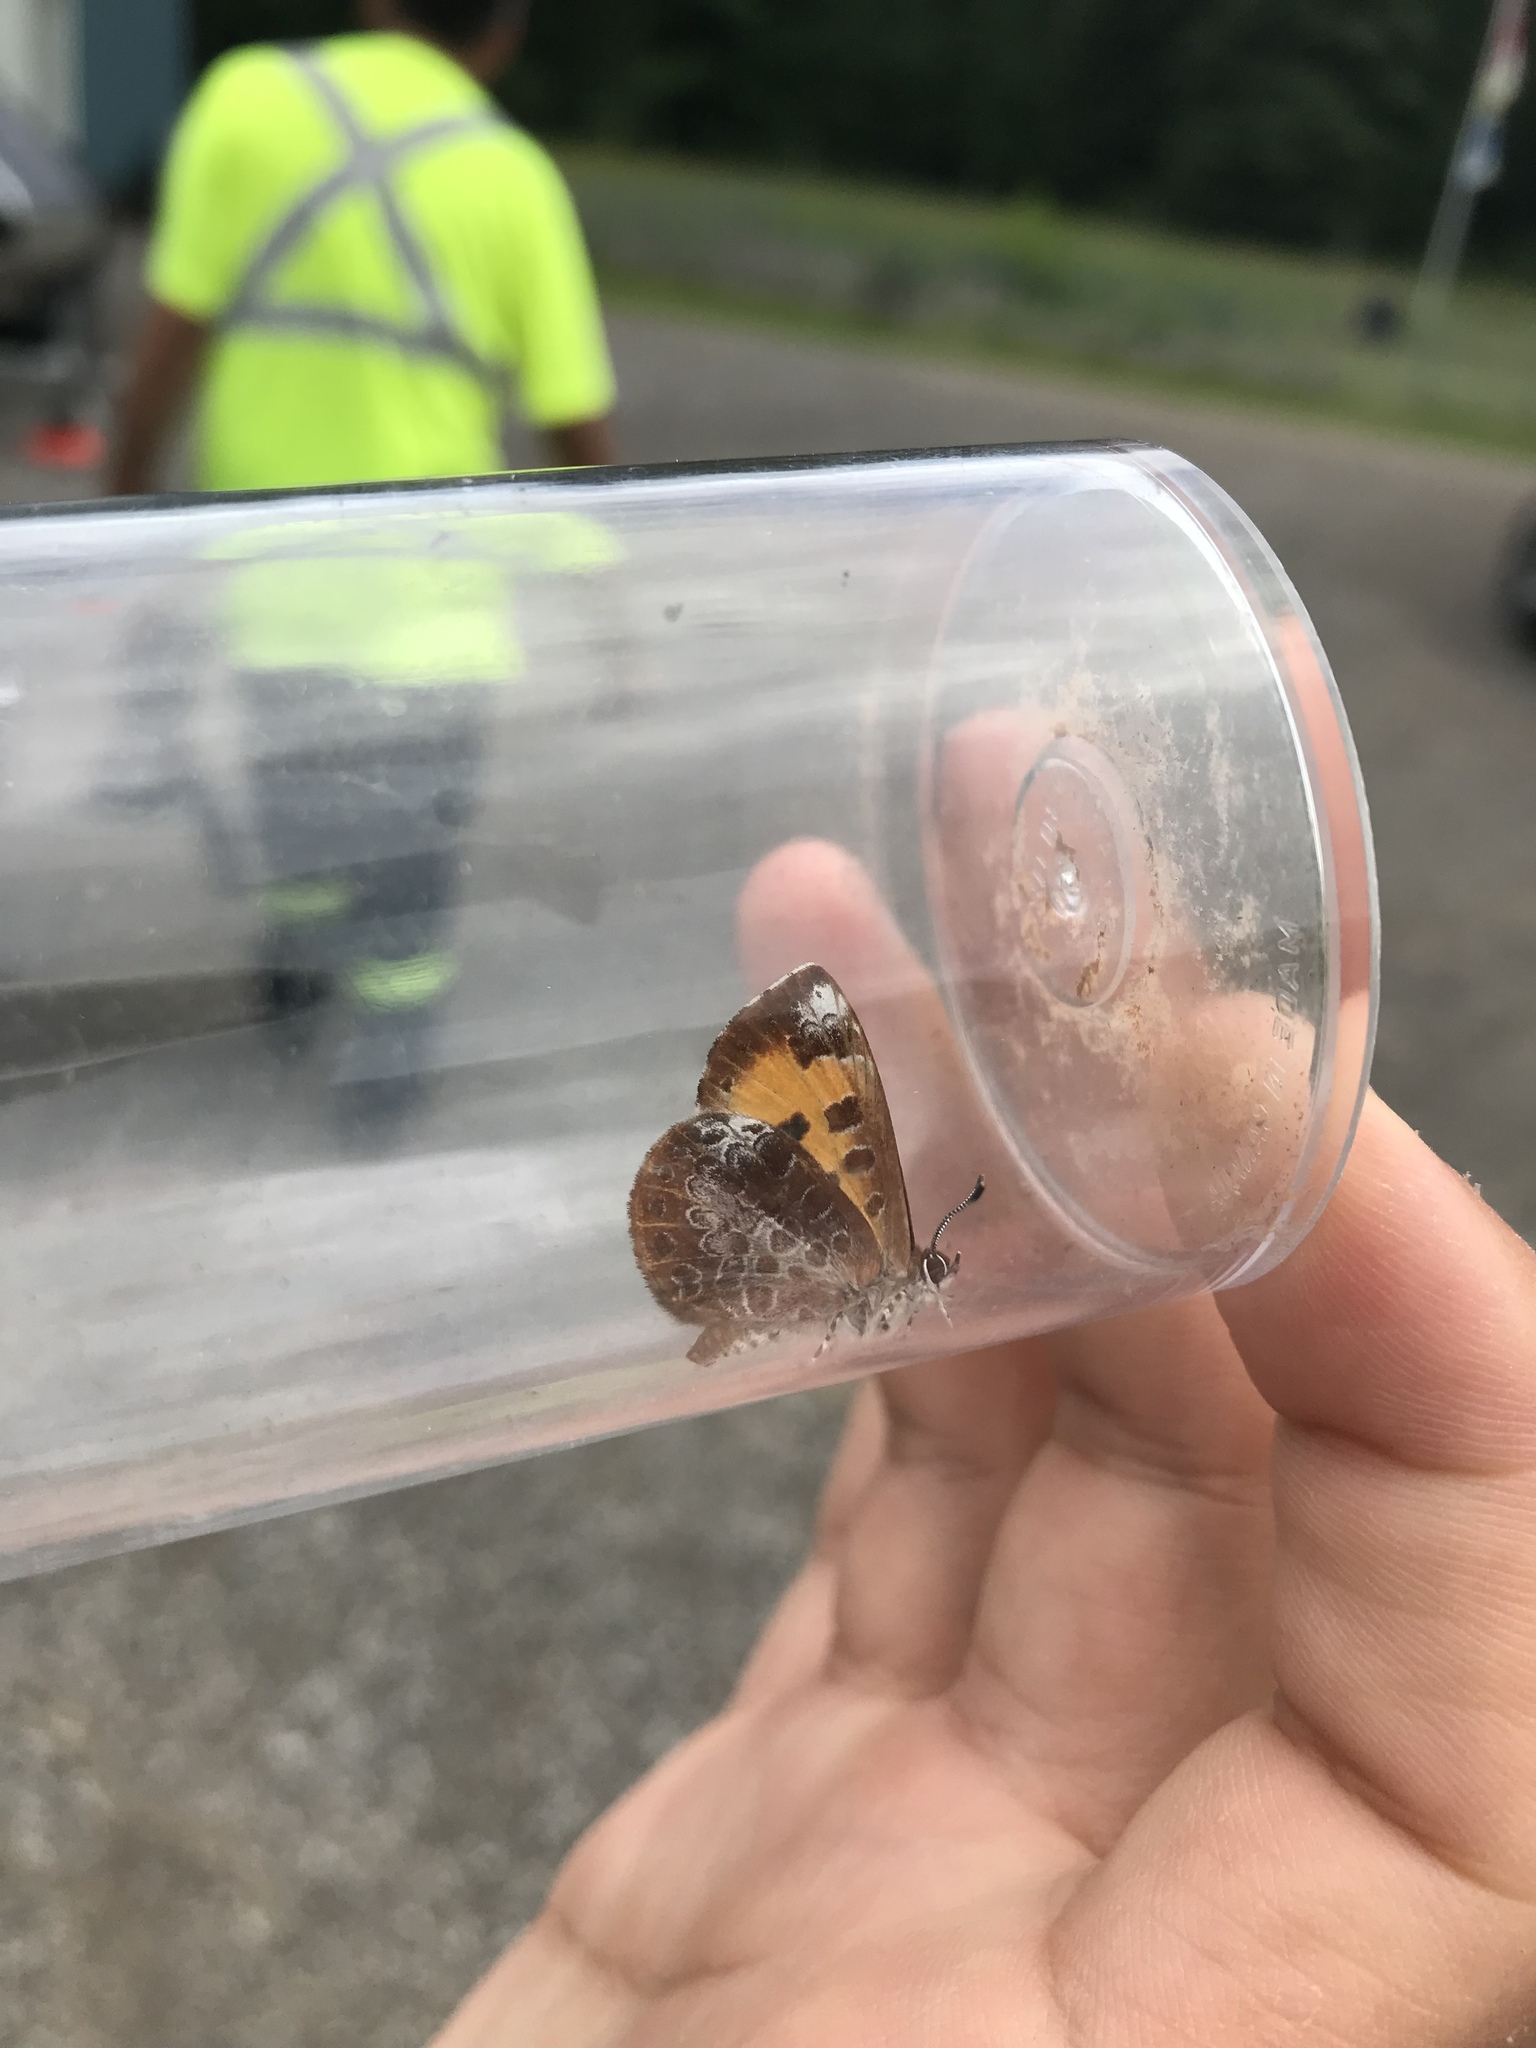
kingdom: Animalia
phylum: Arthropoda
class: Insecta
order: Lepidoptera
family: Lycaenidae
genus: Feniseca
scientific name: Feniseca tarquinius
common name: Harvester
